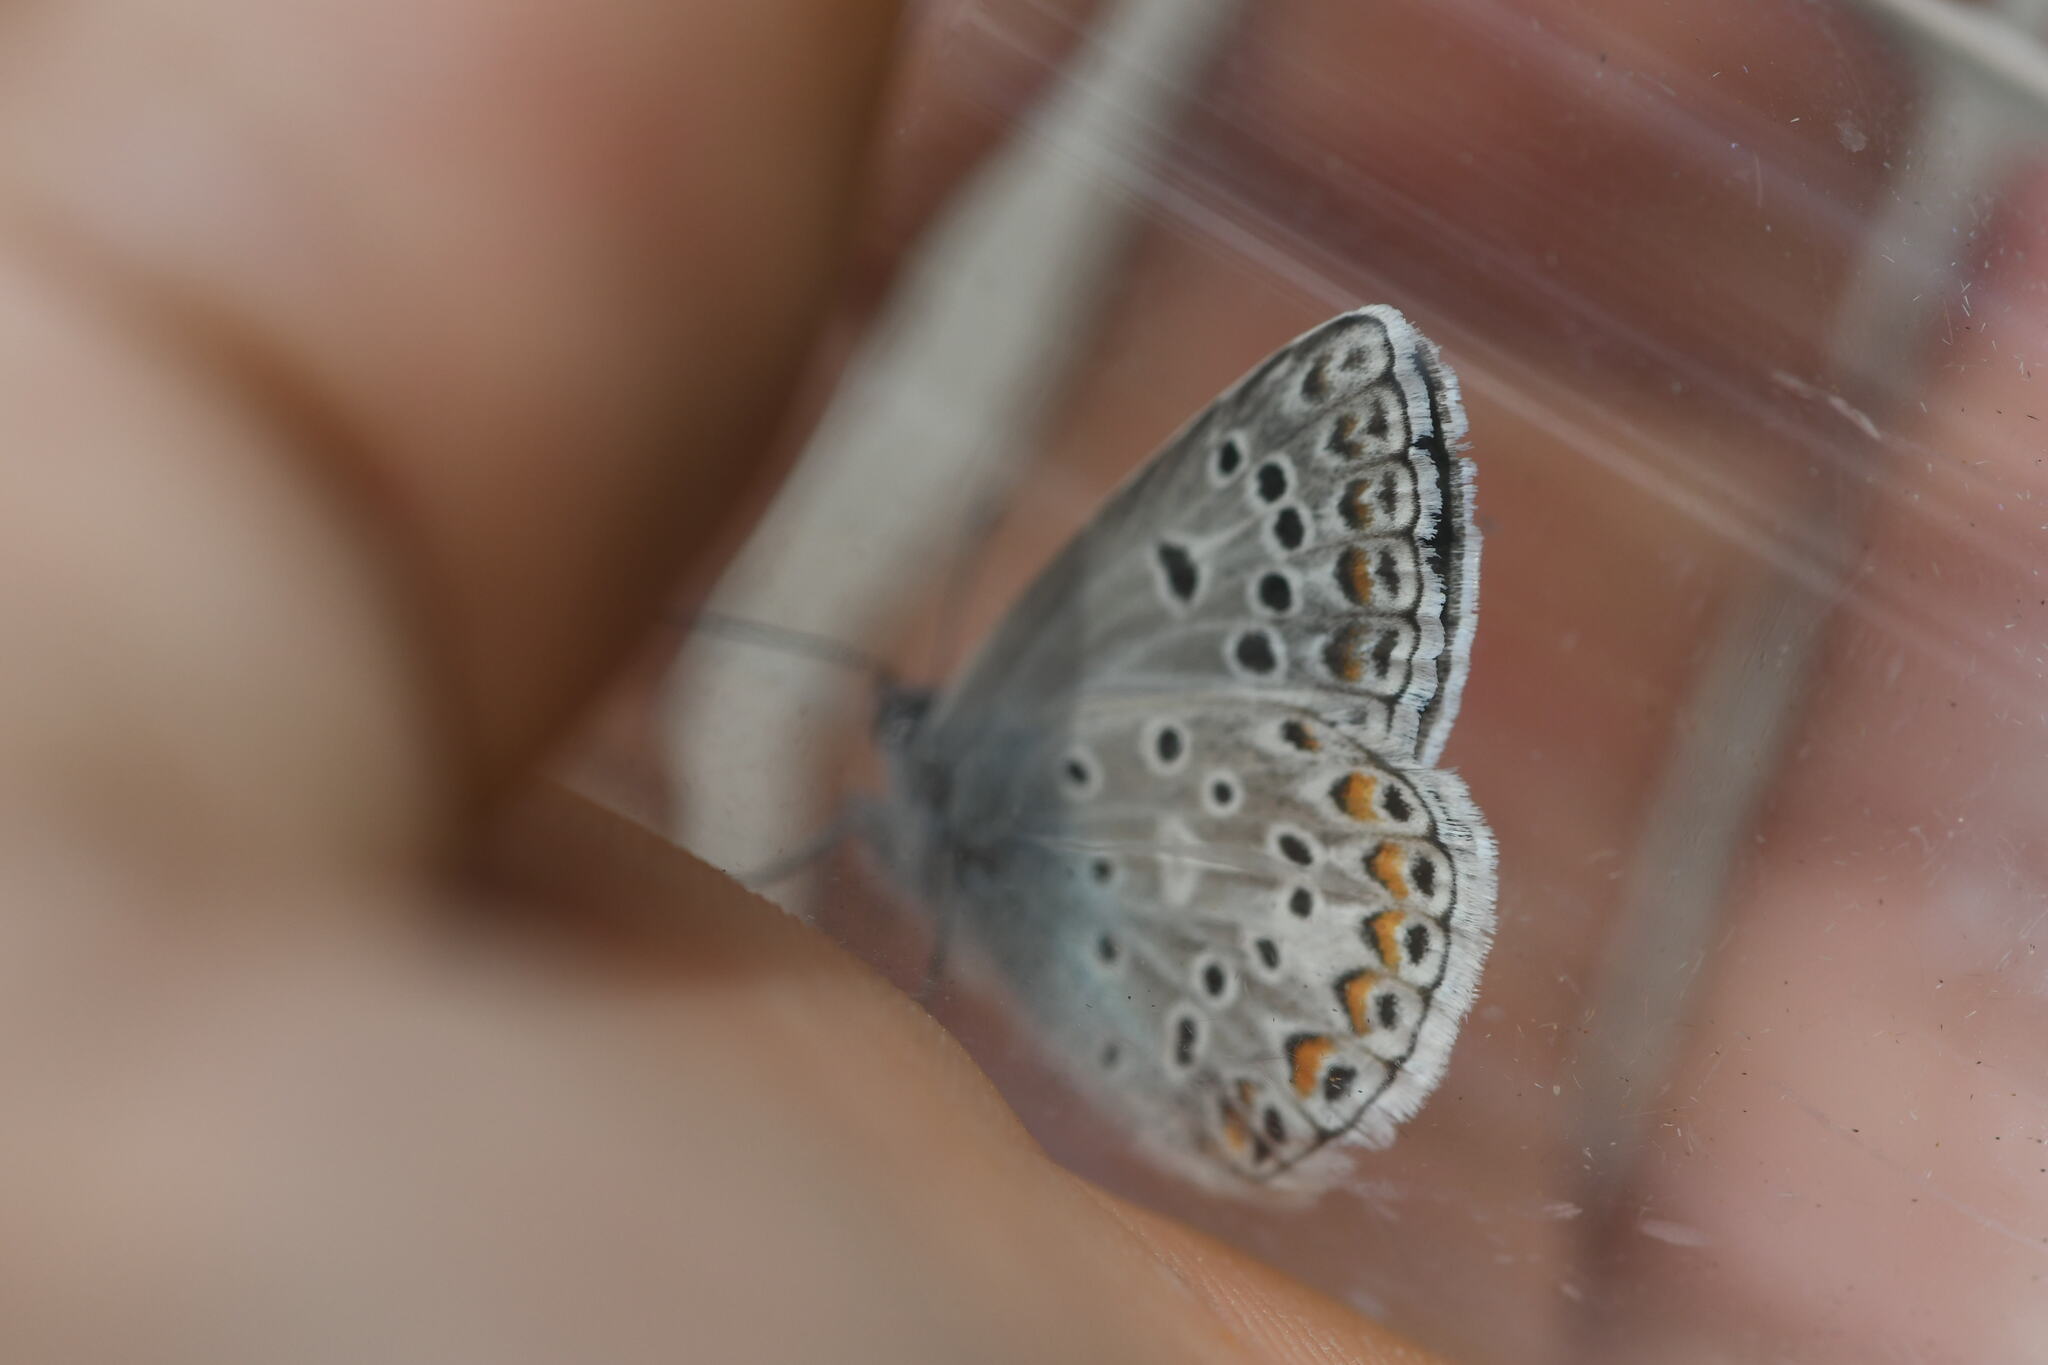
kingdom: Animalia
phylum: Arthropoda
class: Insecta
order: Lepidoptera
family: Lycaenidae
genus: Plebicula
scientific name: Plebicula escheri
